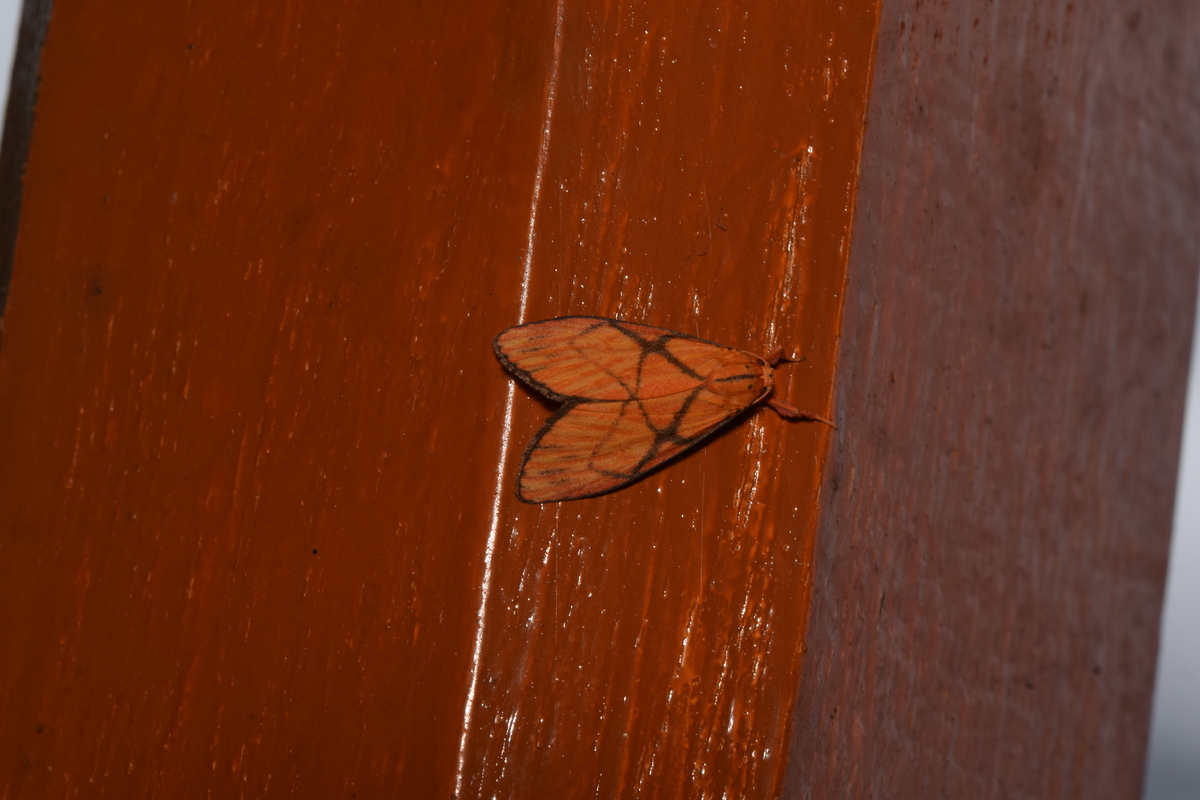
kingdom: Animalia
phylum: Arthropoda
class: Insecta
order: Lepidoptera
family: Erebidae
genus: Moorasura
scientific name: Moorasura gloriosa
